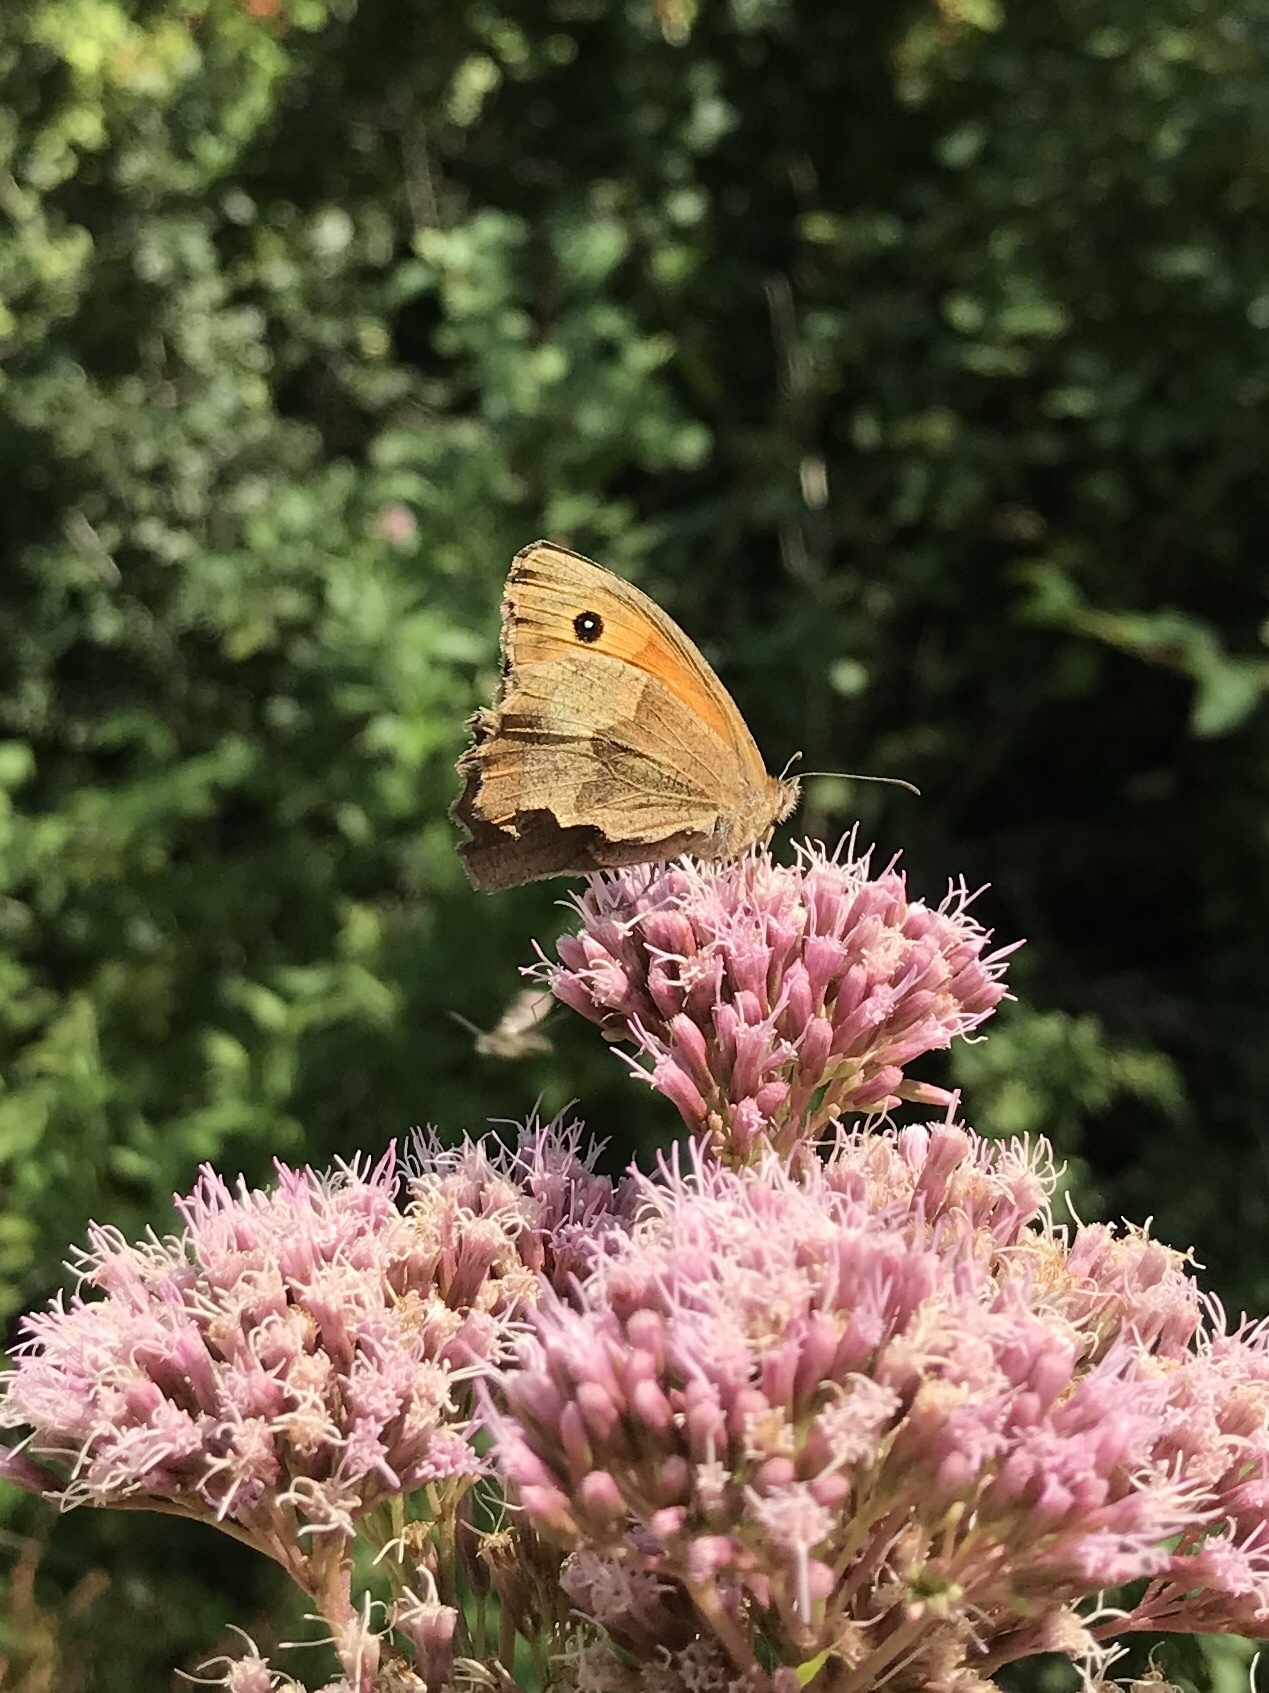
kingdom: Animalia
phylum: Arthropoda
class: Insecta
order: Lepidoptera
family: Nymphalidae
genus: Maniola
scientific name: Maniola jurtina
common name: Meadow brown
